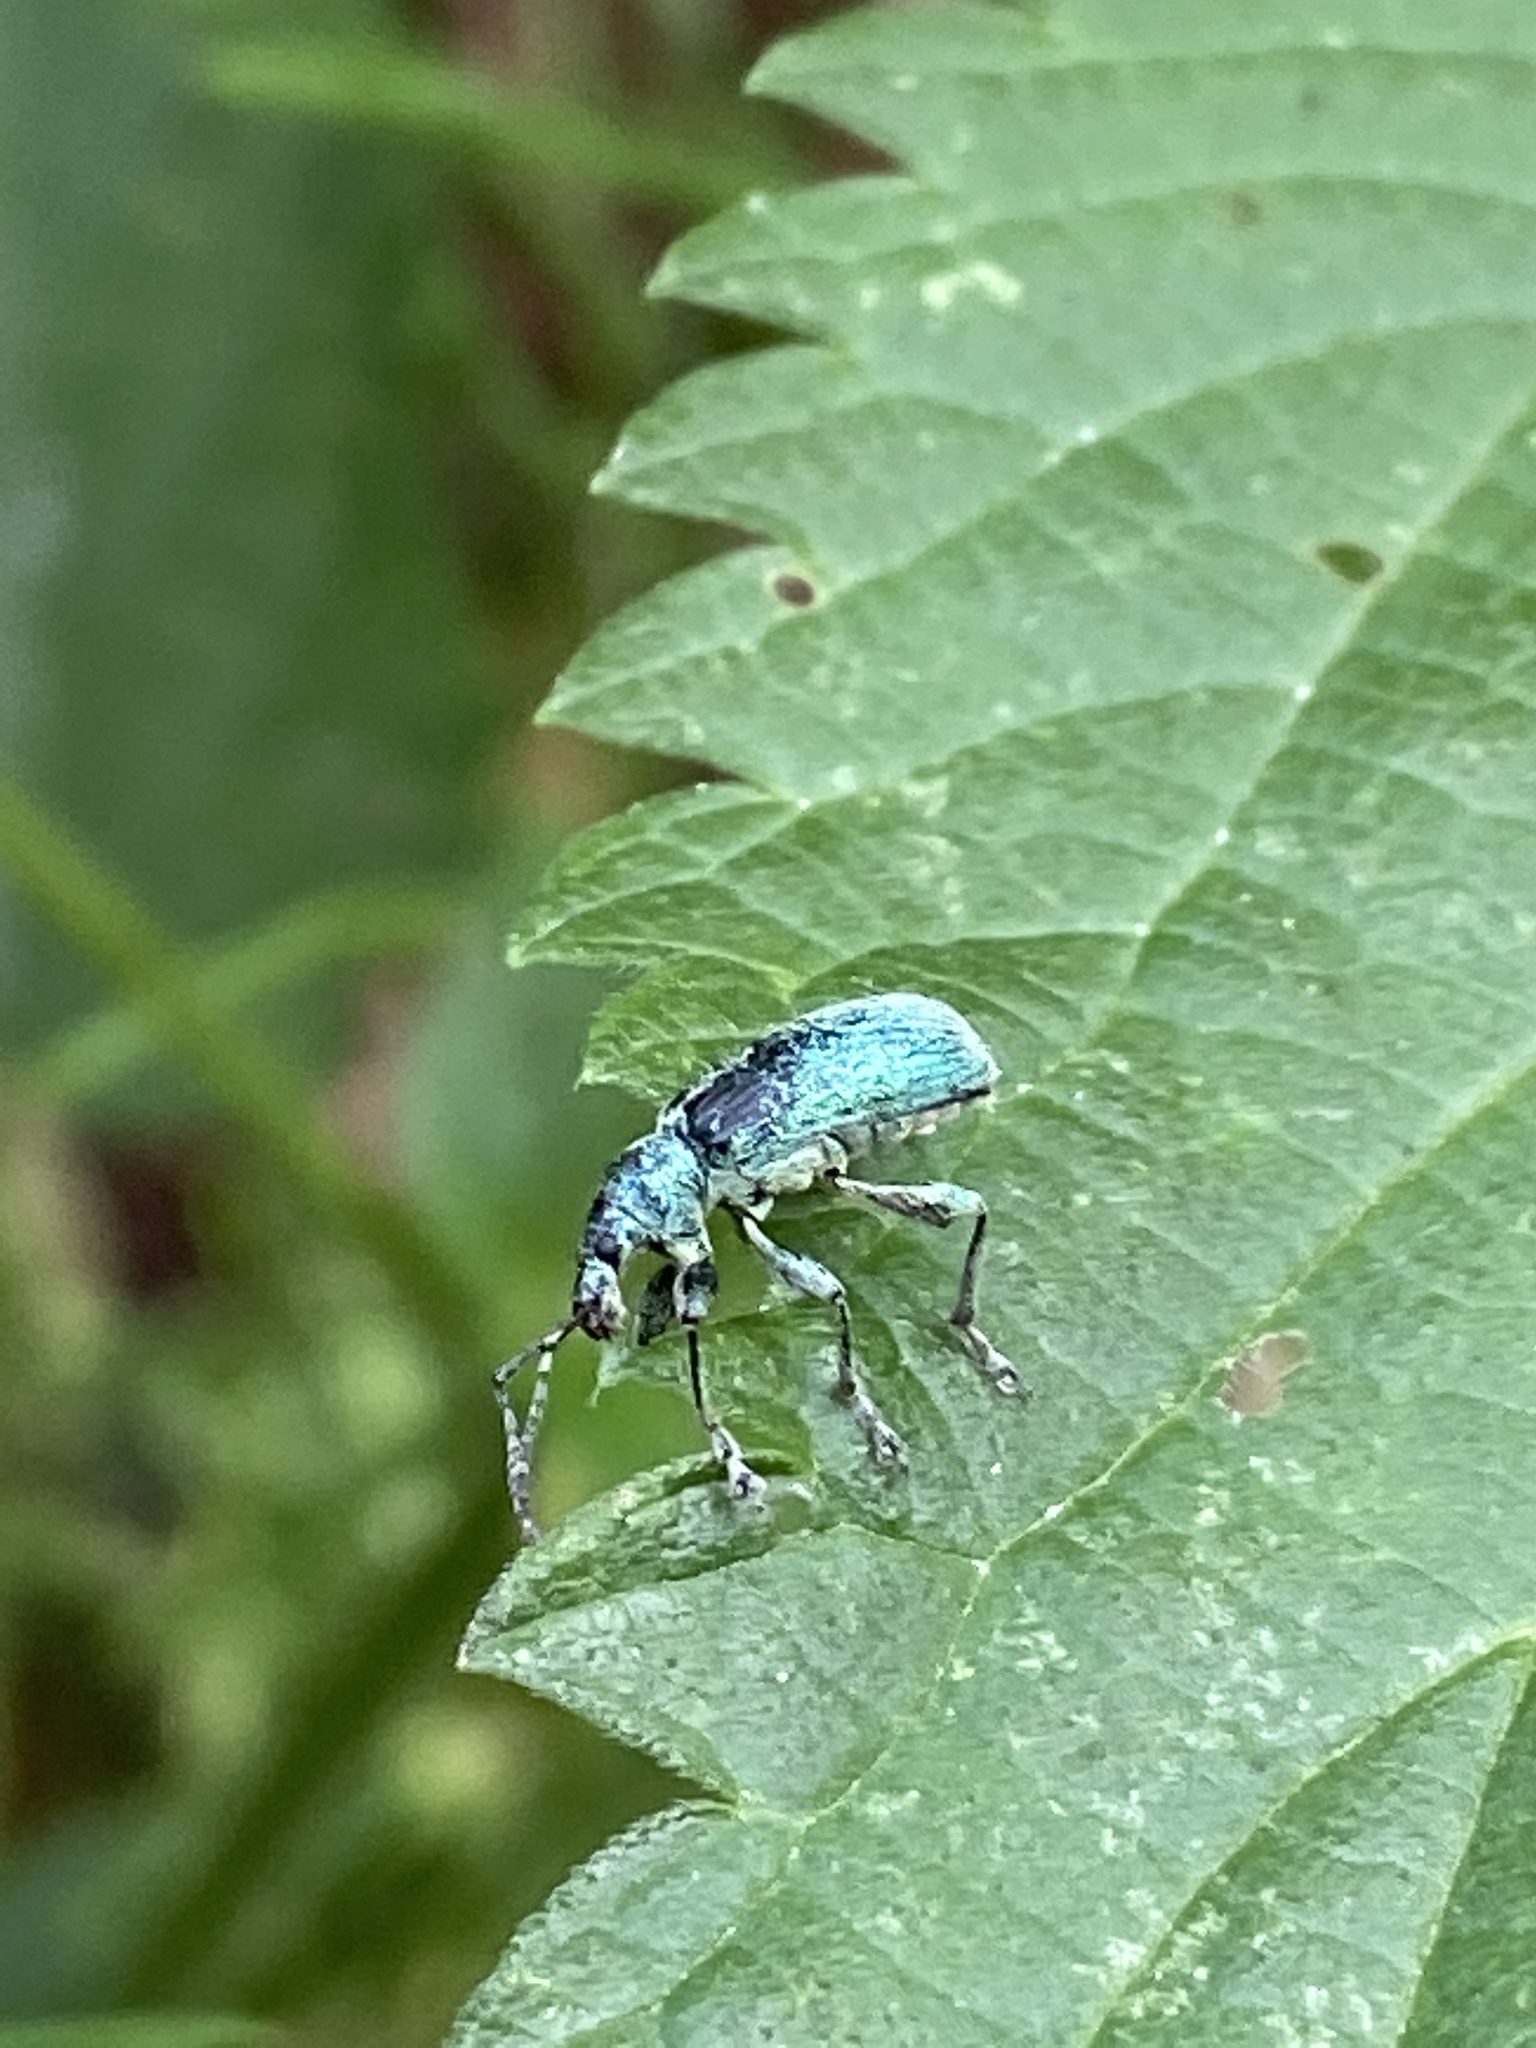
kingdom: Animalia
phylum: Arthropoda
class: Insecta
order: Coleoptera
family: Curculionidae
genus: Phyllobius
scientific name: Phyllobius pomaceus
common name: Green nettle weevil
